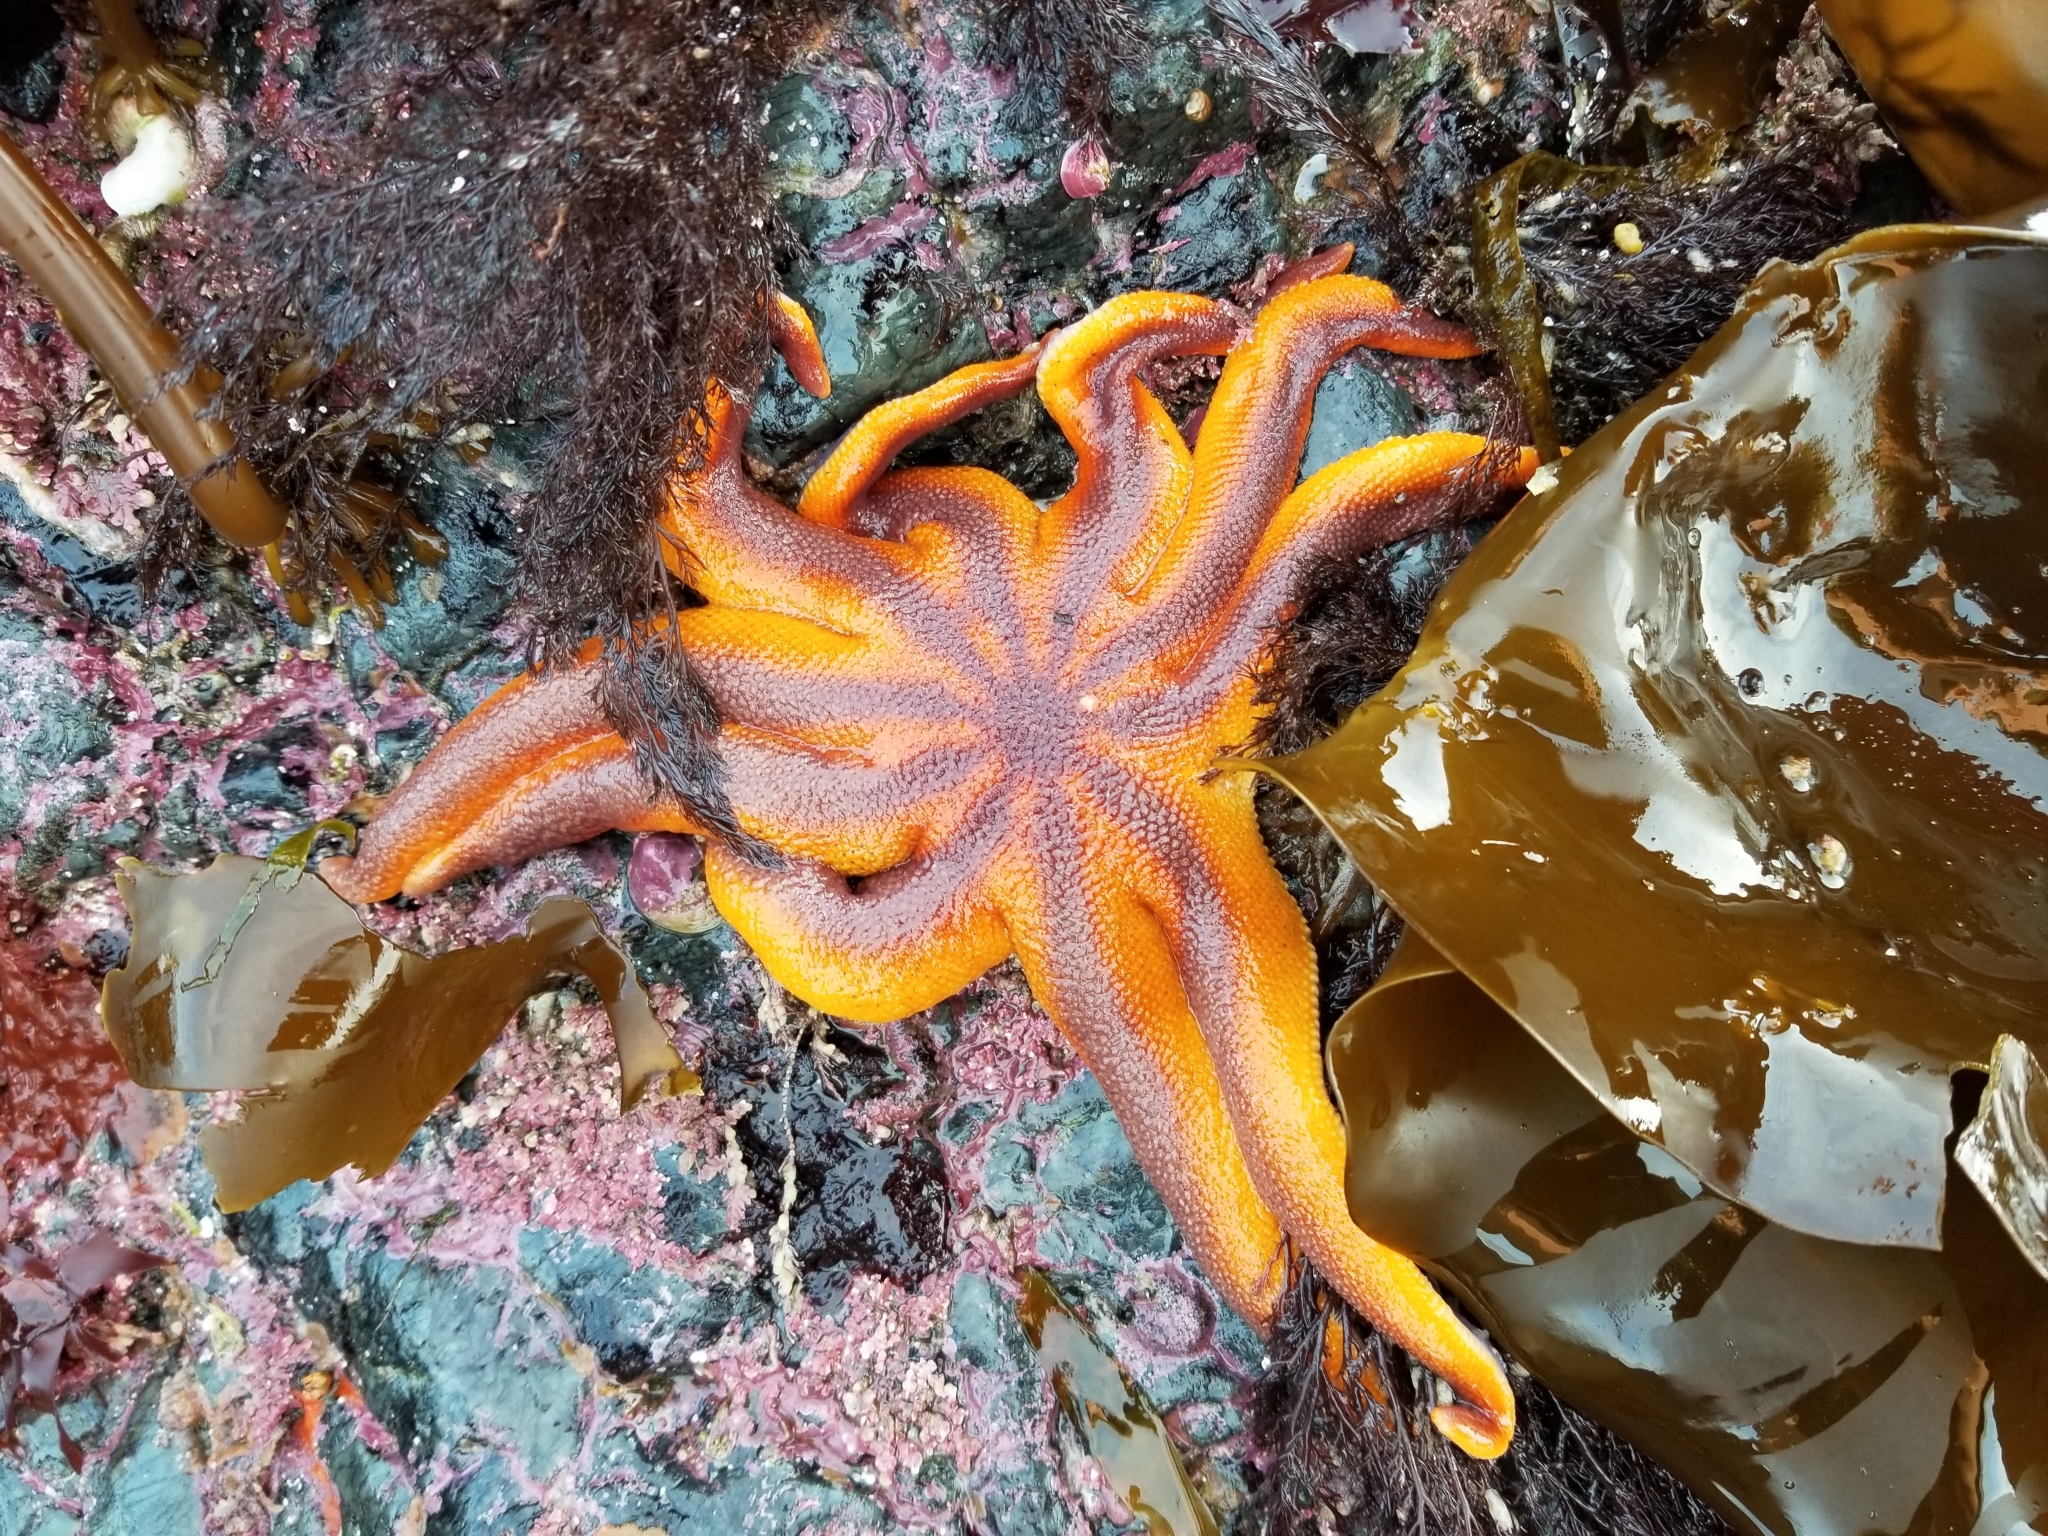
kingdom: Animalia
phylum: Echinodermata
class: Asteroidea
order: Valvatida
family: Solasteridae
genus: Solaster
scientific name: Solaster stimpsoni
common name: Orange sun star
